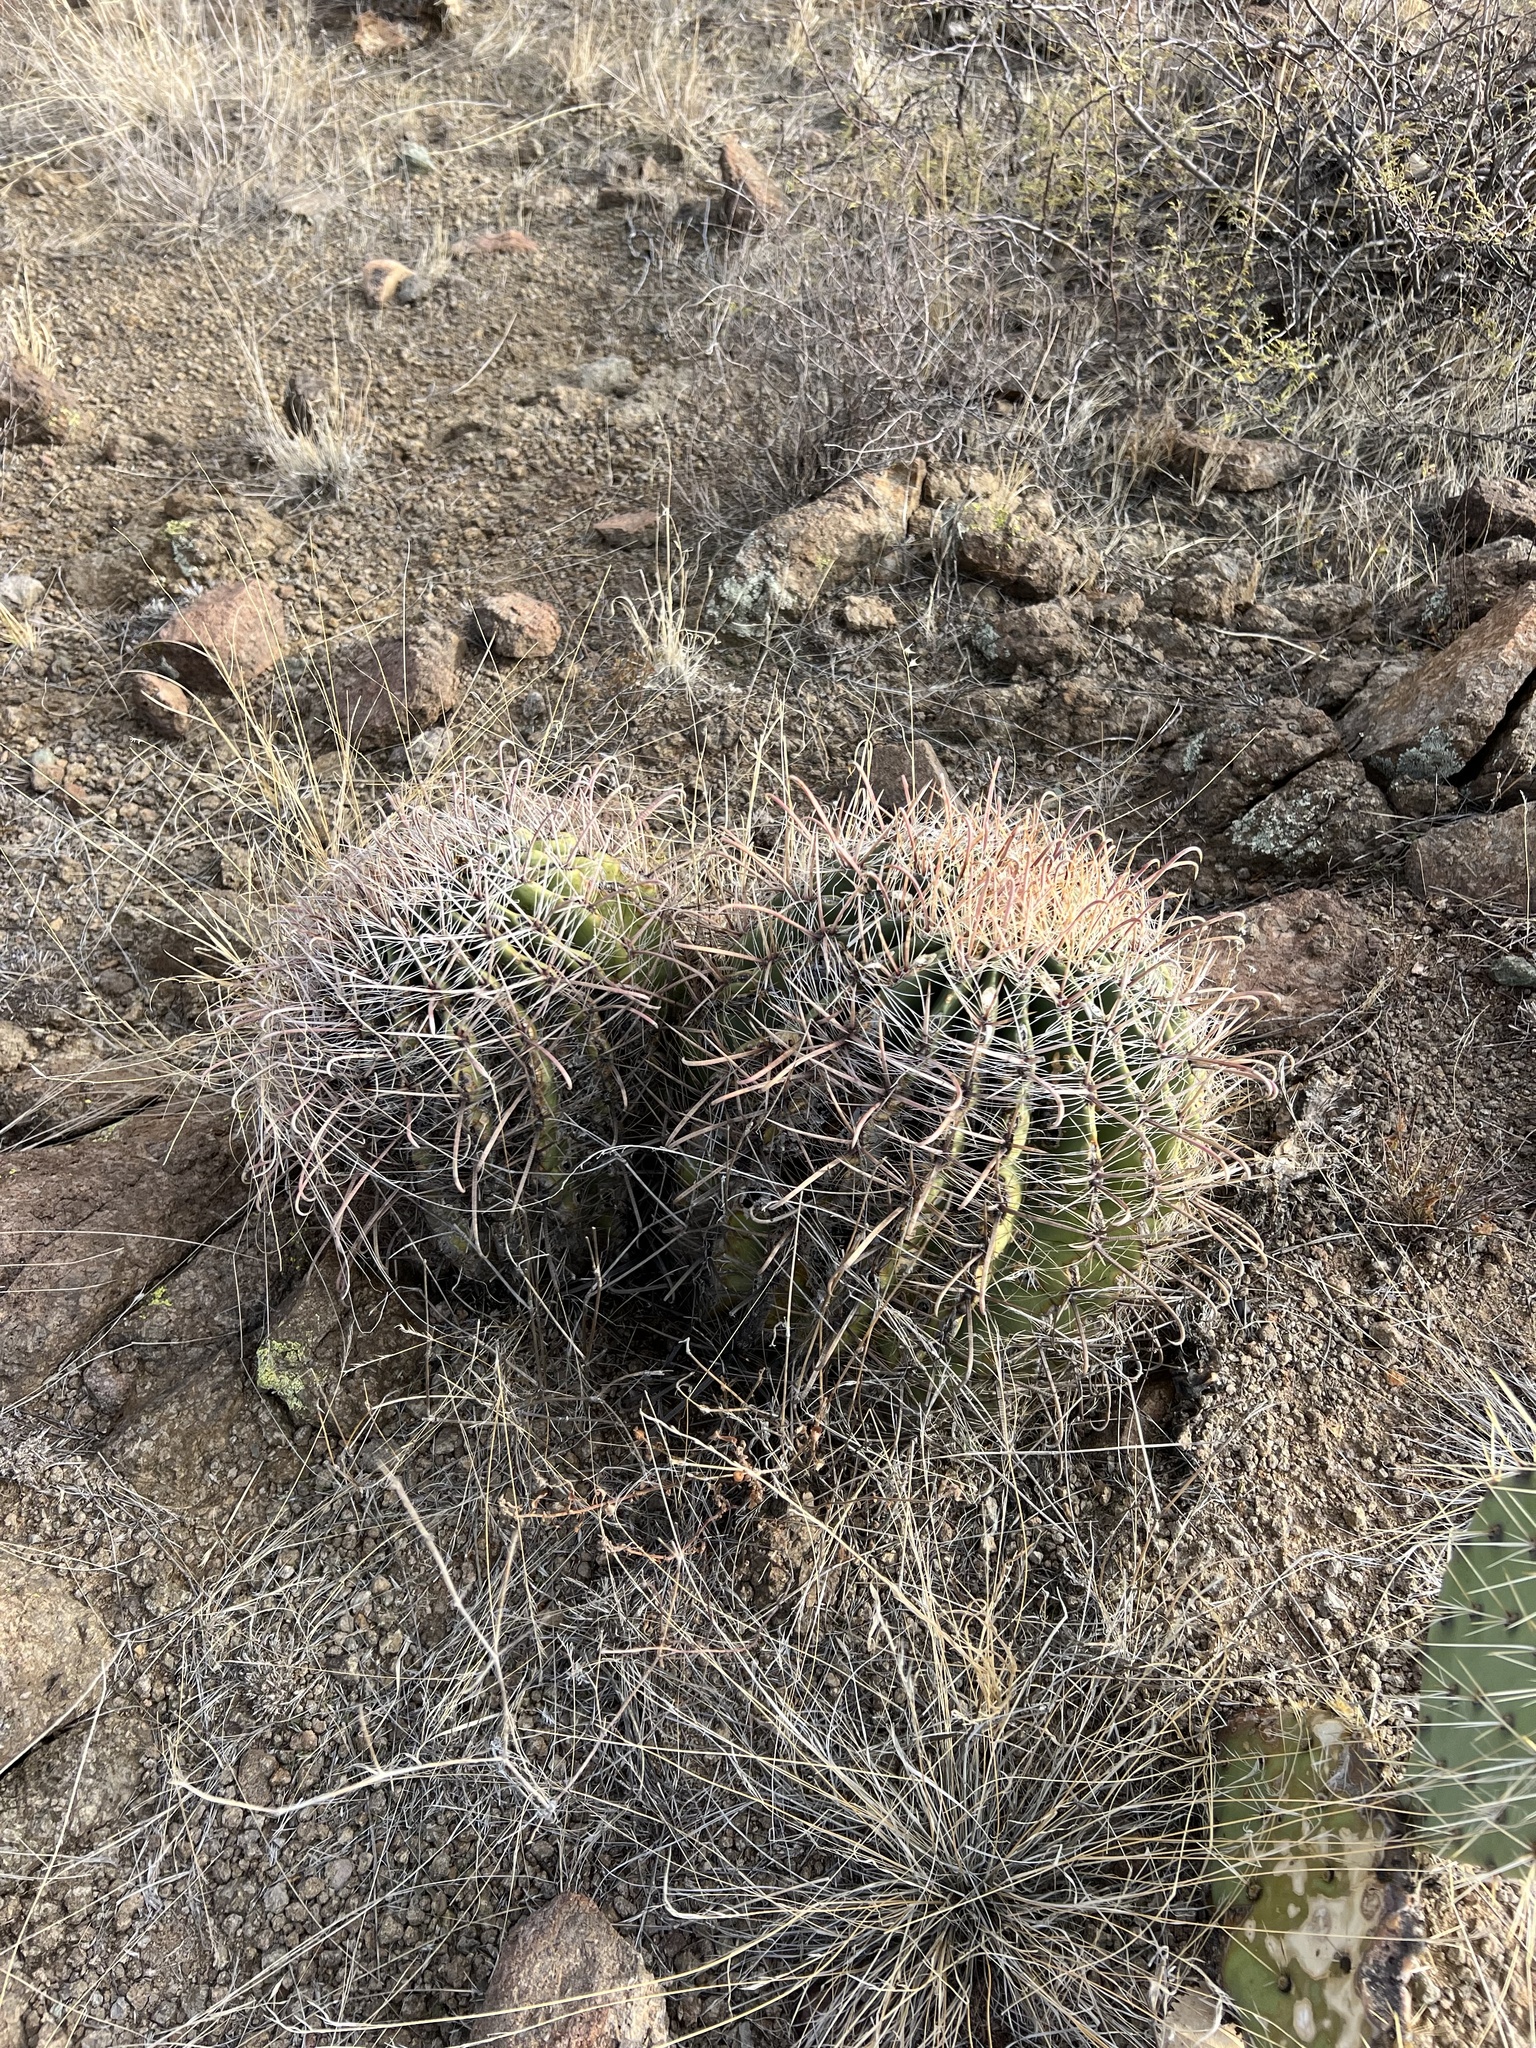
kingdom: Plantae
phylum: Tracheophyta
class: Magnoliopsida
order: Caryophyllales
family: Cactaceae
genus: Ferocactus
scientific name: Ferocactus wislizeni
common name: Candy barrel cactus
